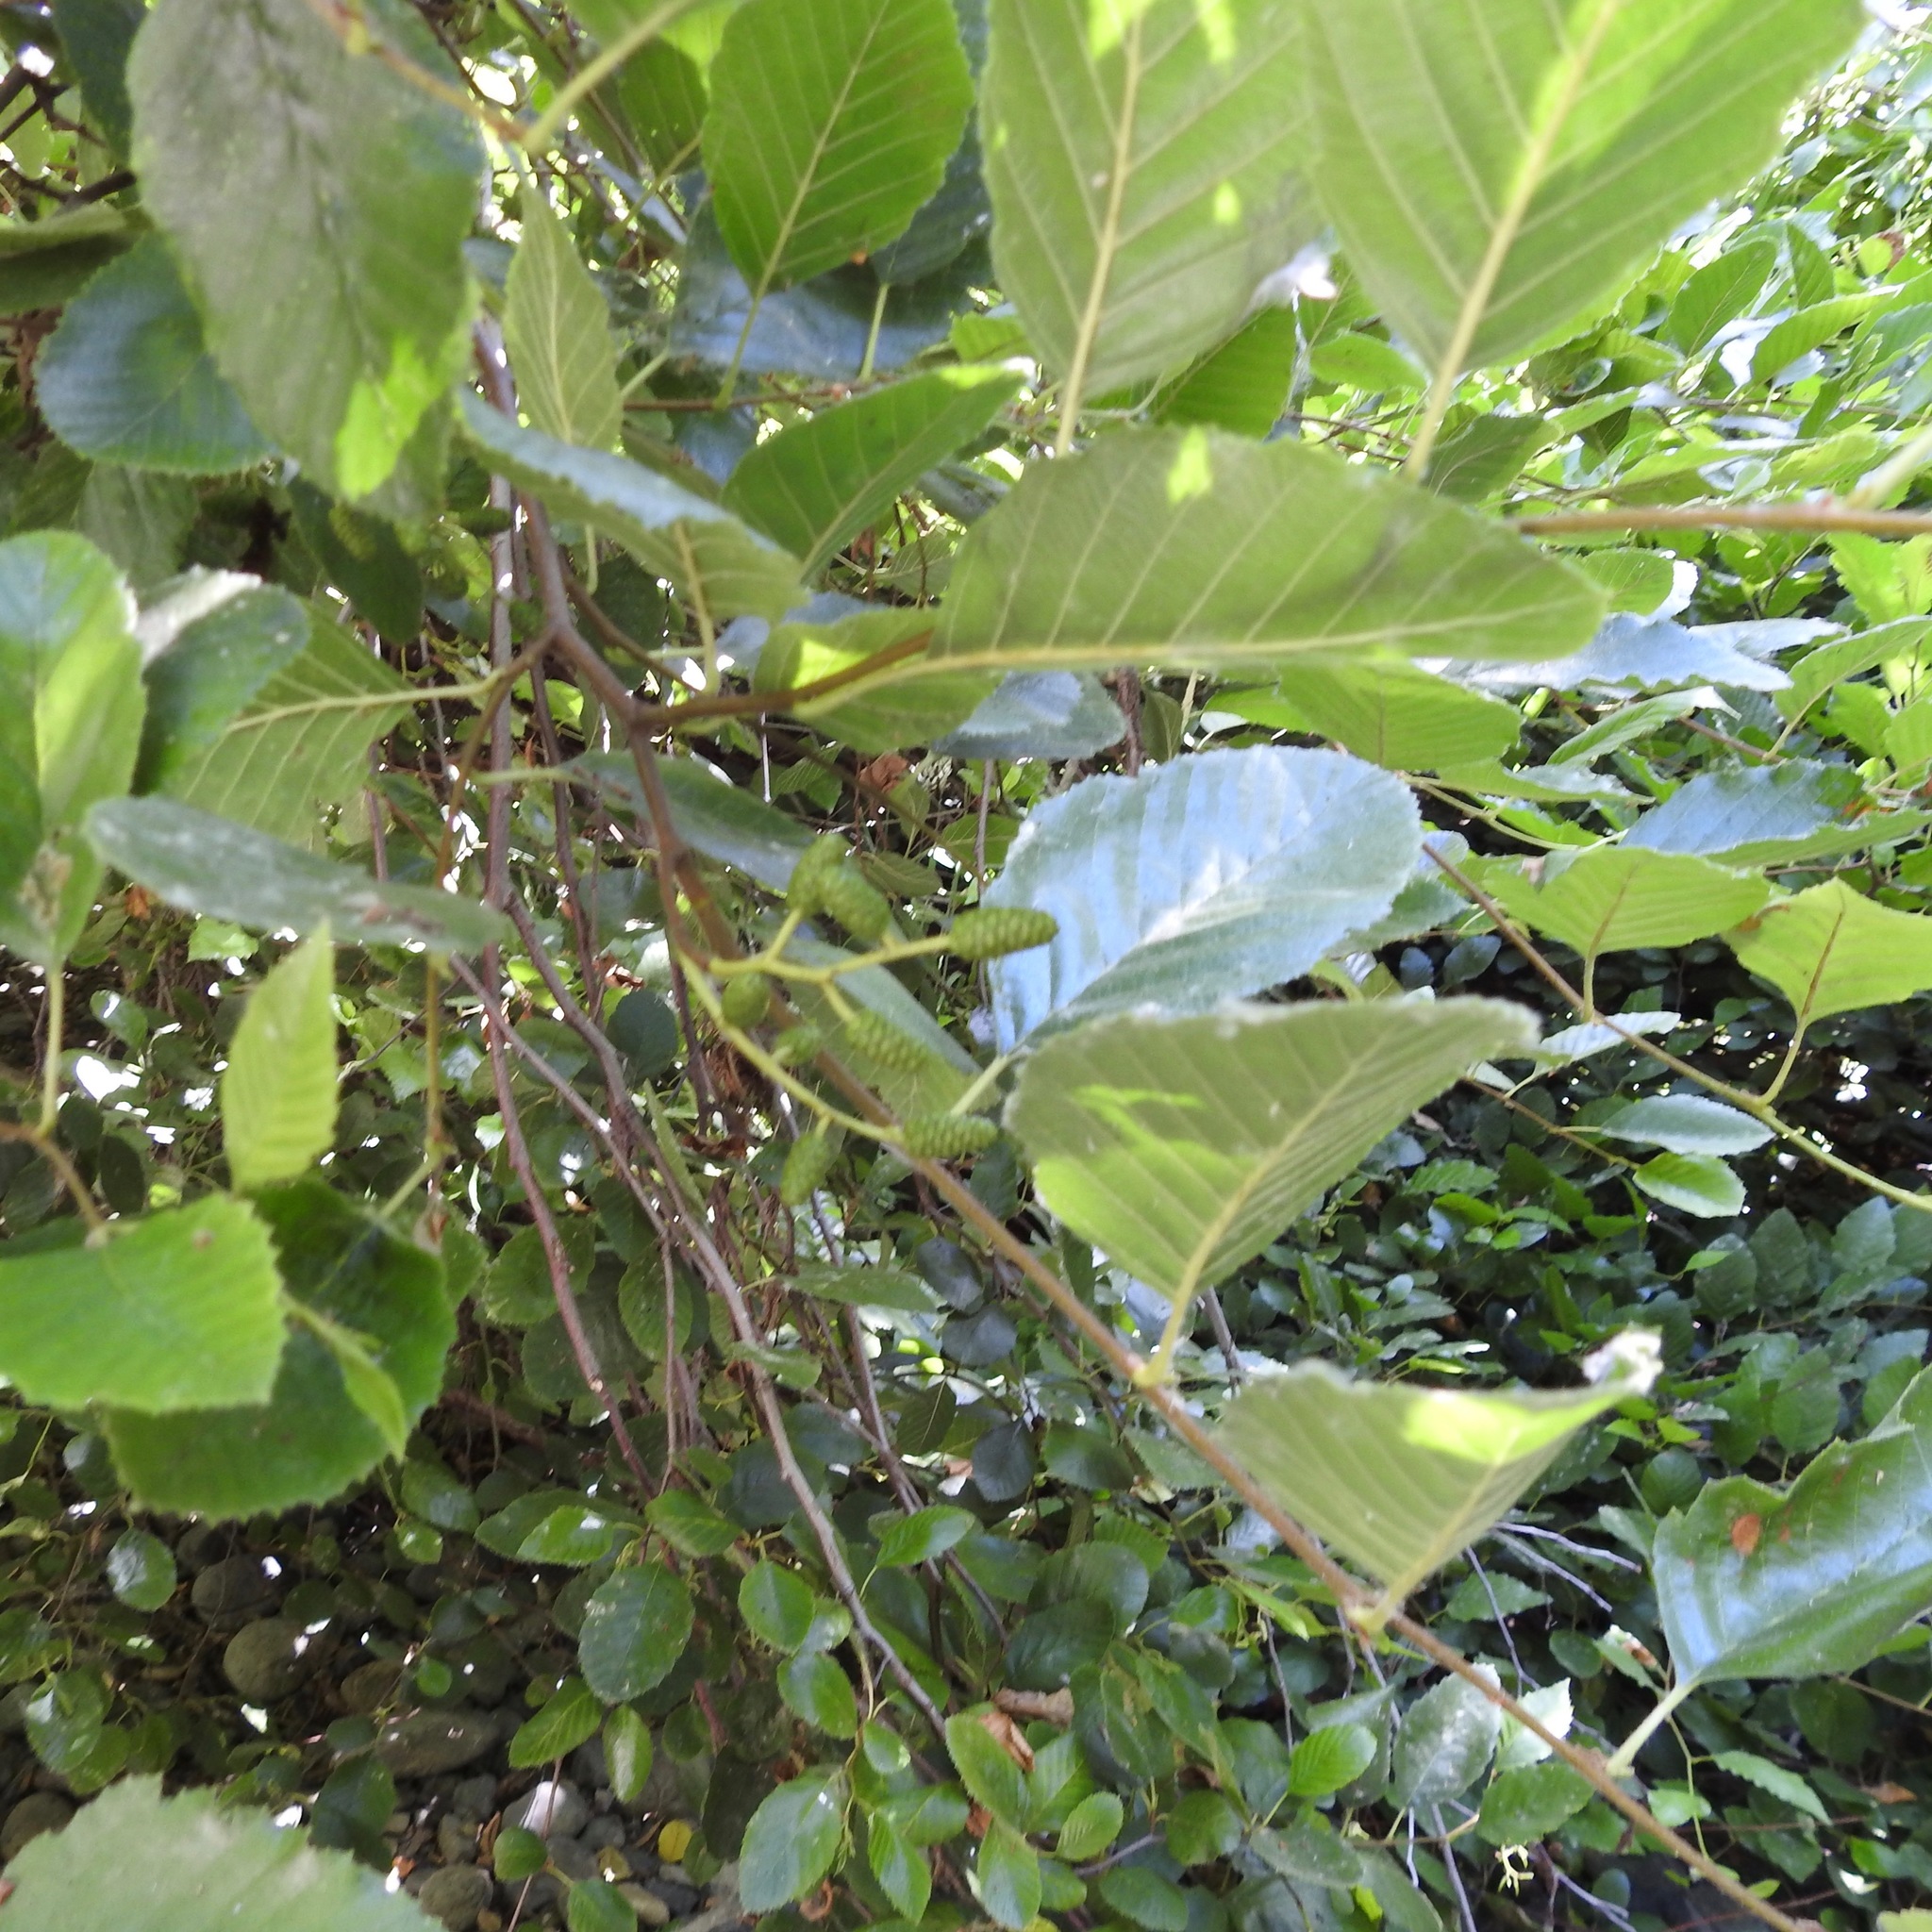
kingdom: Plantae
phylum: Tracheophyta
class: Magnoliopsida
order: Fagales
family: Betulaceae
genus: Alnus
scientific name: Alnus rhombifolia
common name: California alder
